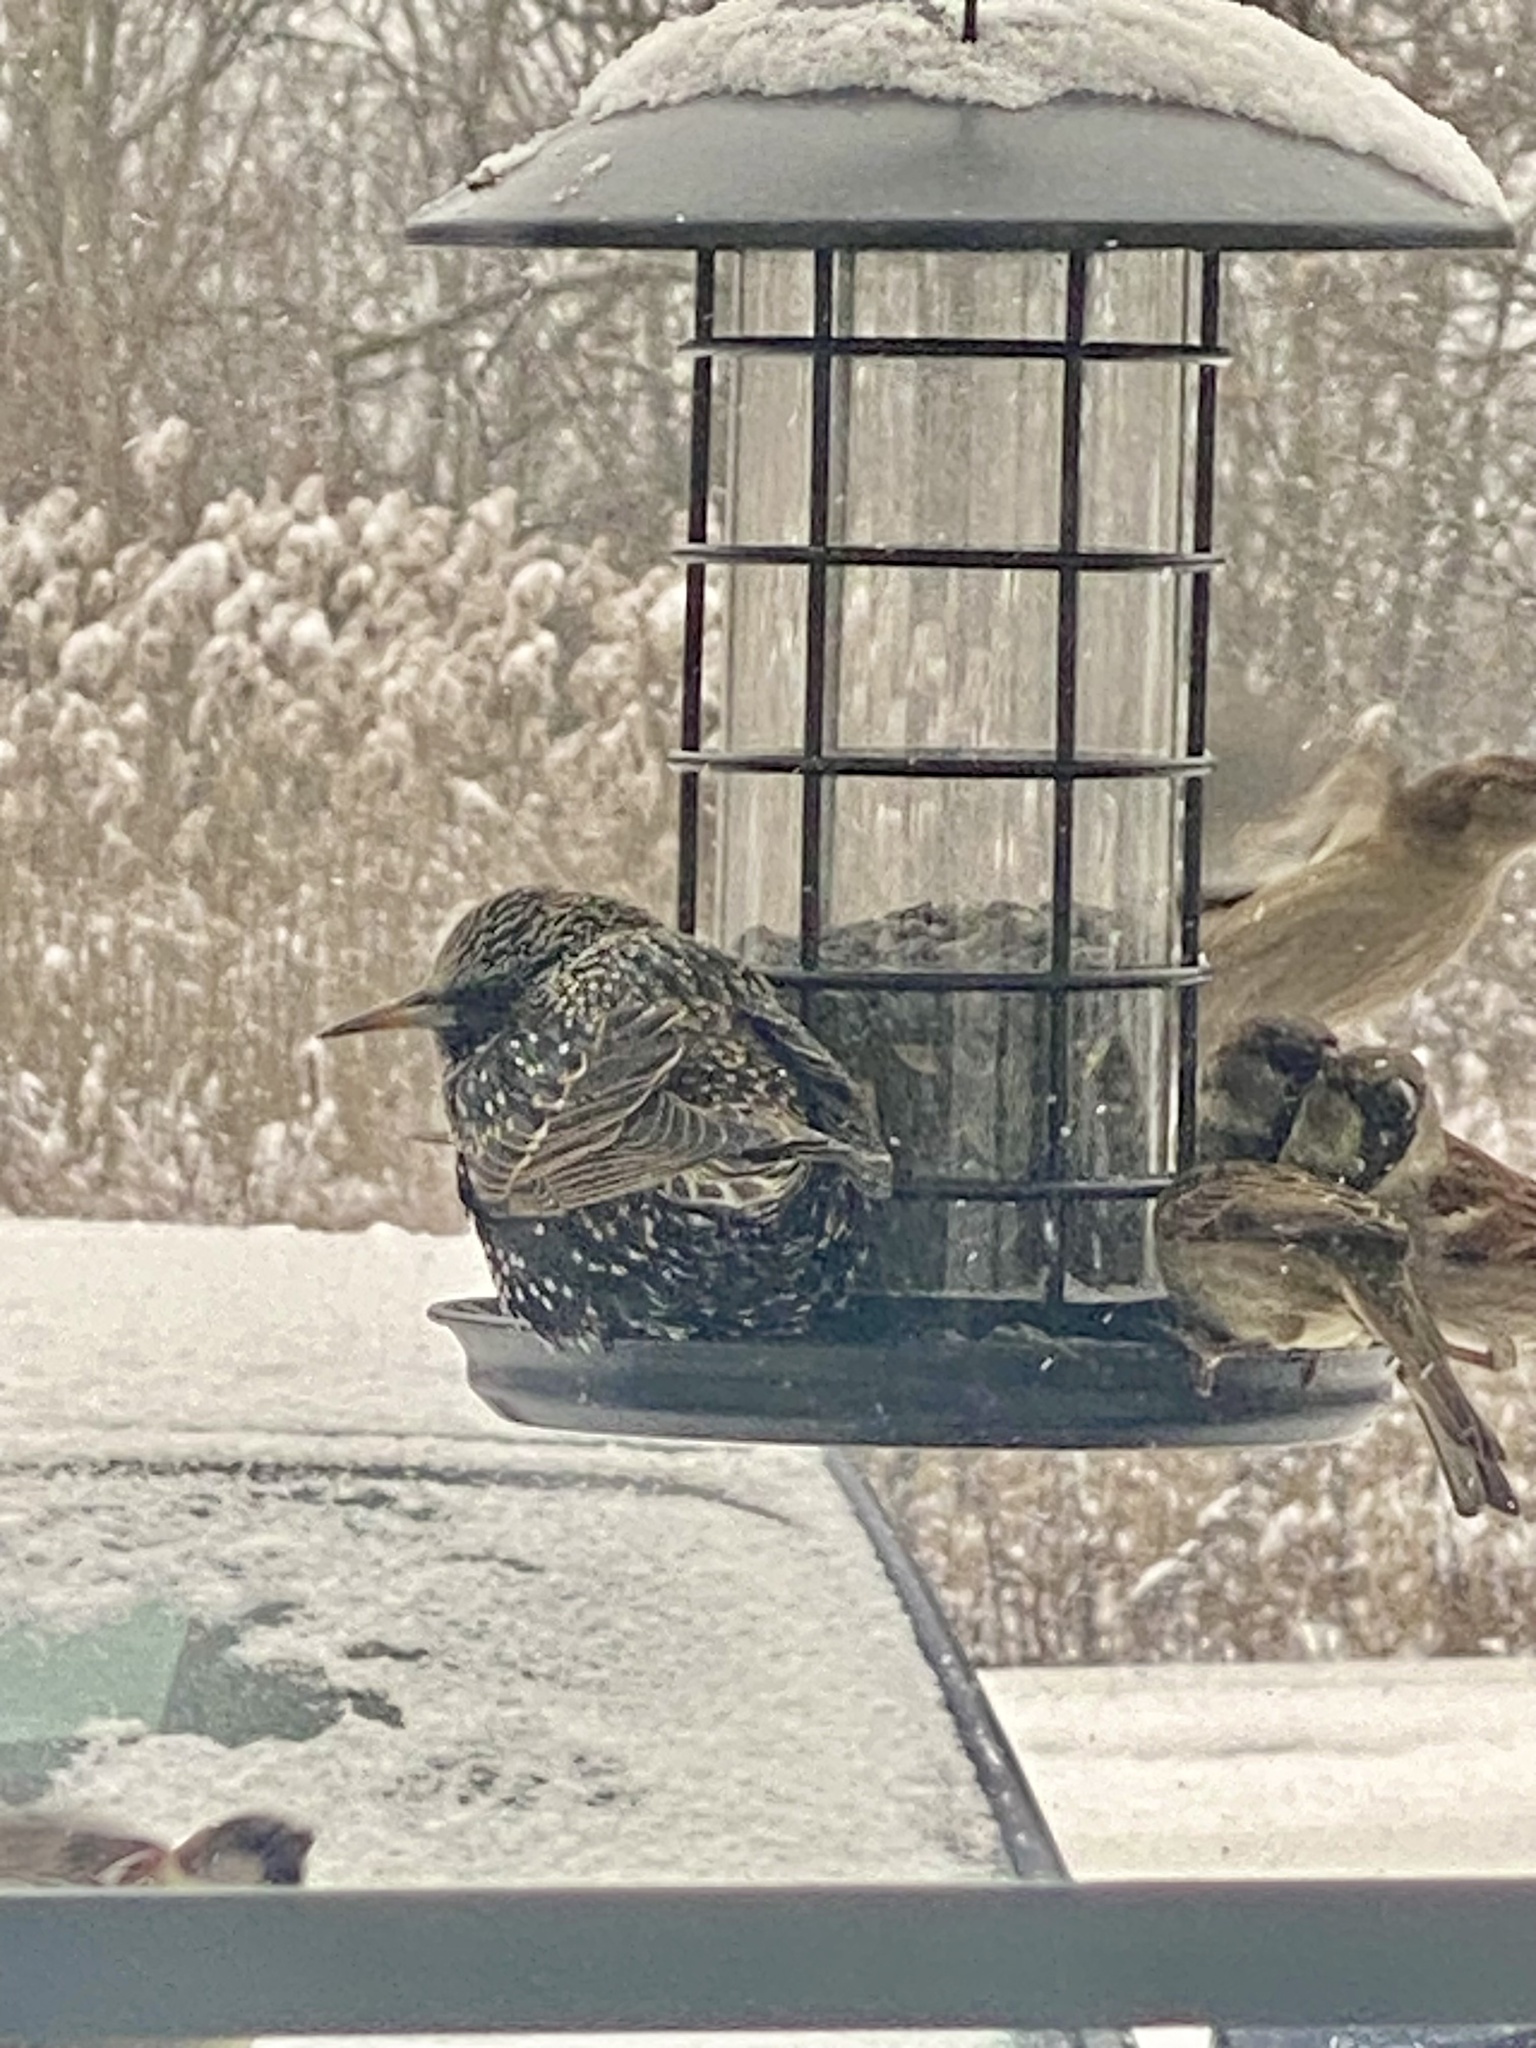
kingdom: Animalia
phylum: Chordata
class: Aves
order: Passeriformes
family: Sturnidae
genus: Sturnus
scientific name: Sturnus vulgaris
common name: Common starling
